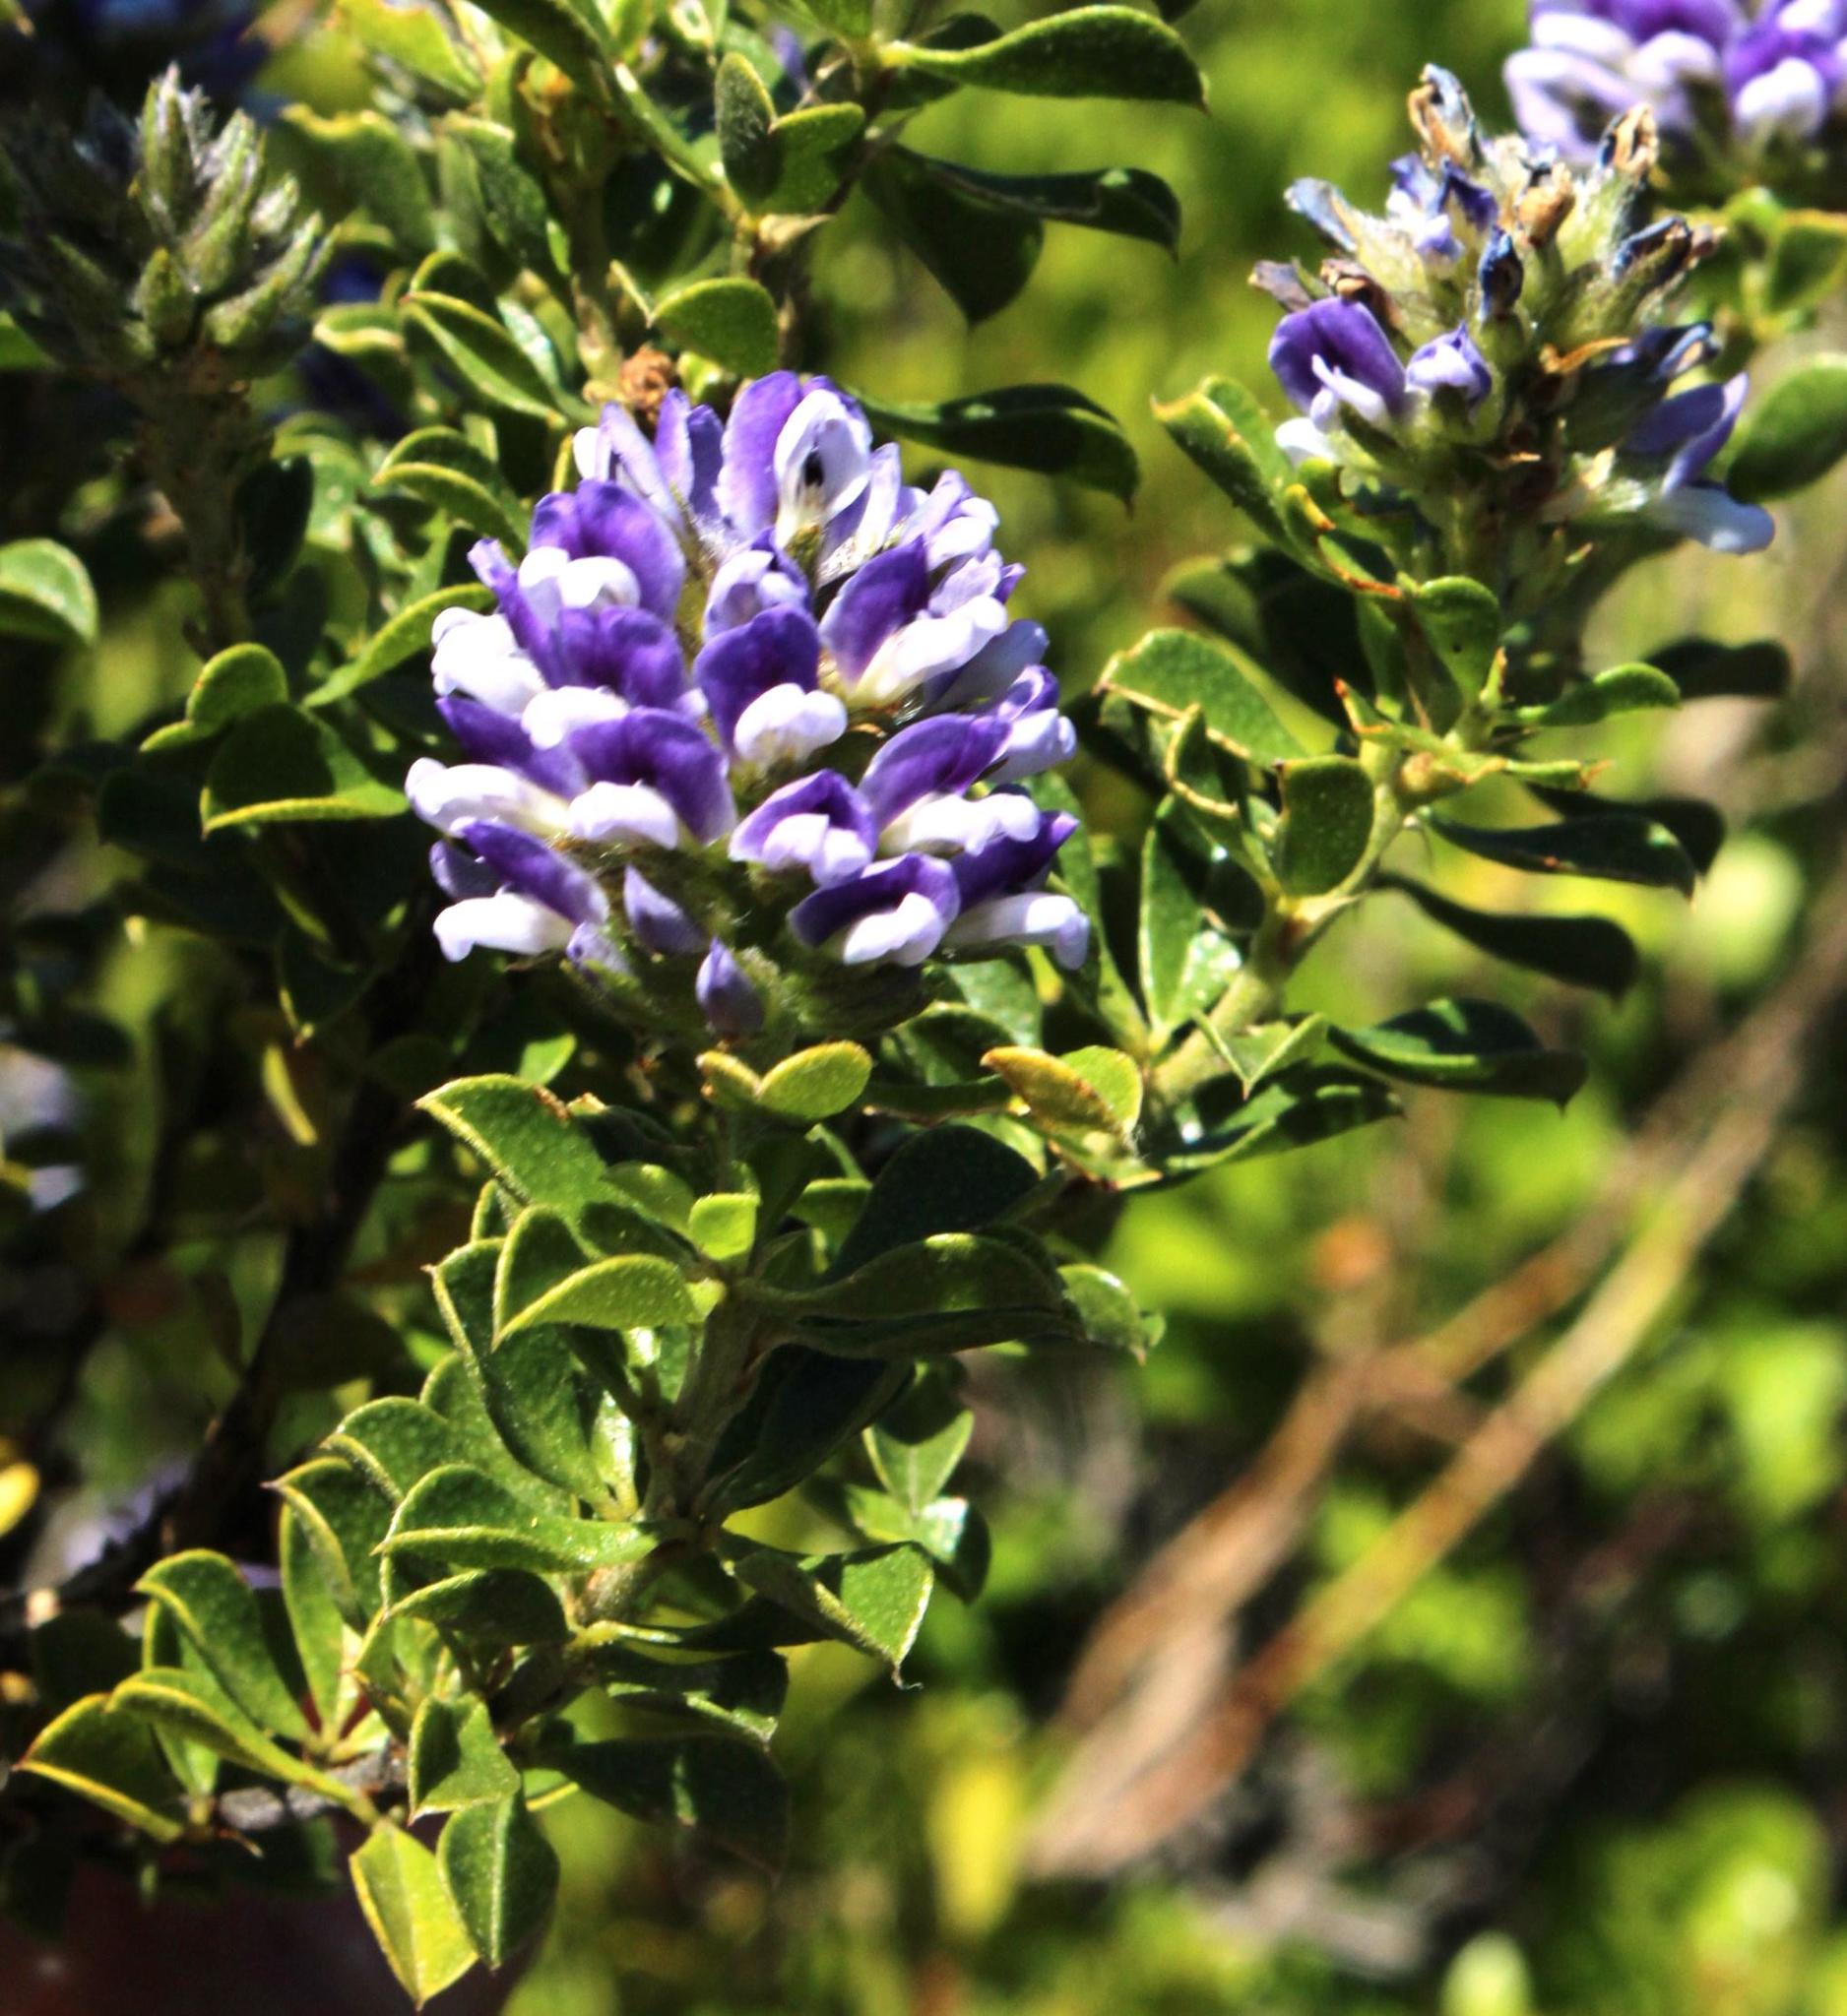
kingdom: Plantae
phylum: Tracheophyta
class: Magnoliopsida
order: Fabales
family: Fabaceae
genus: Psoralea
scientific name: Psoralea bracteolata
